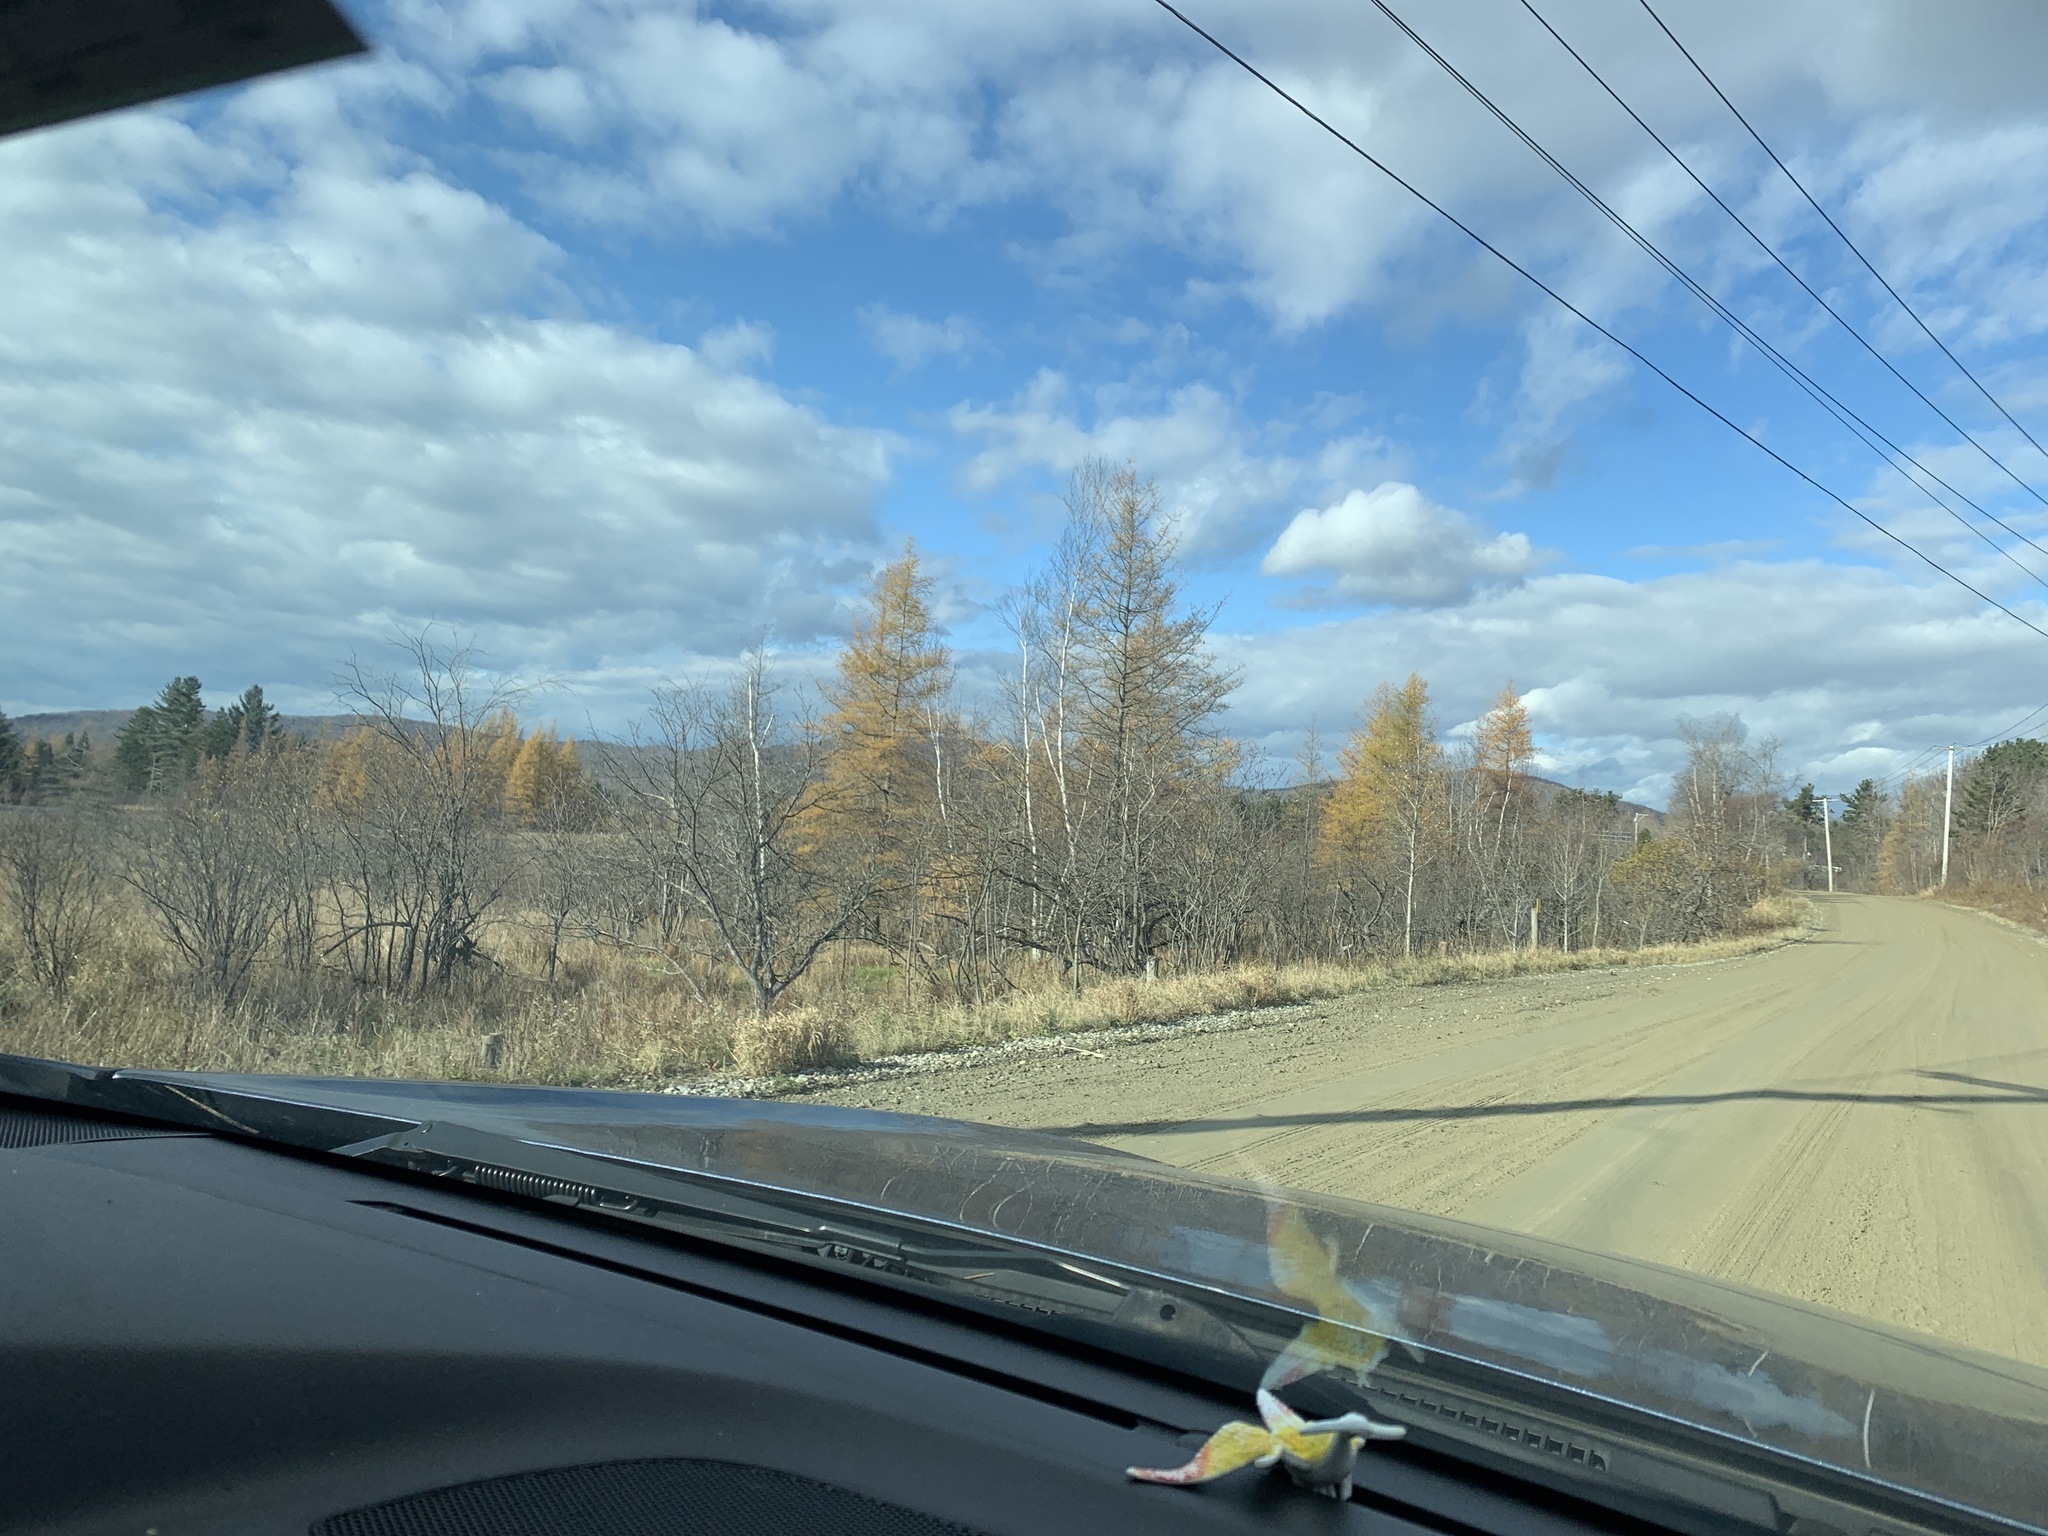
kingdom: Plantae
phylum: Tracheophyta
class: Pinopsida
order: Pinales
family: Pinaceae
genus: Larix
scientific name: Larix laricina
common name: American larch
